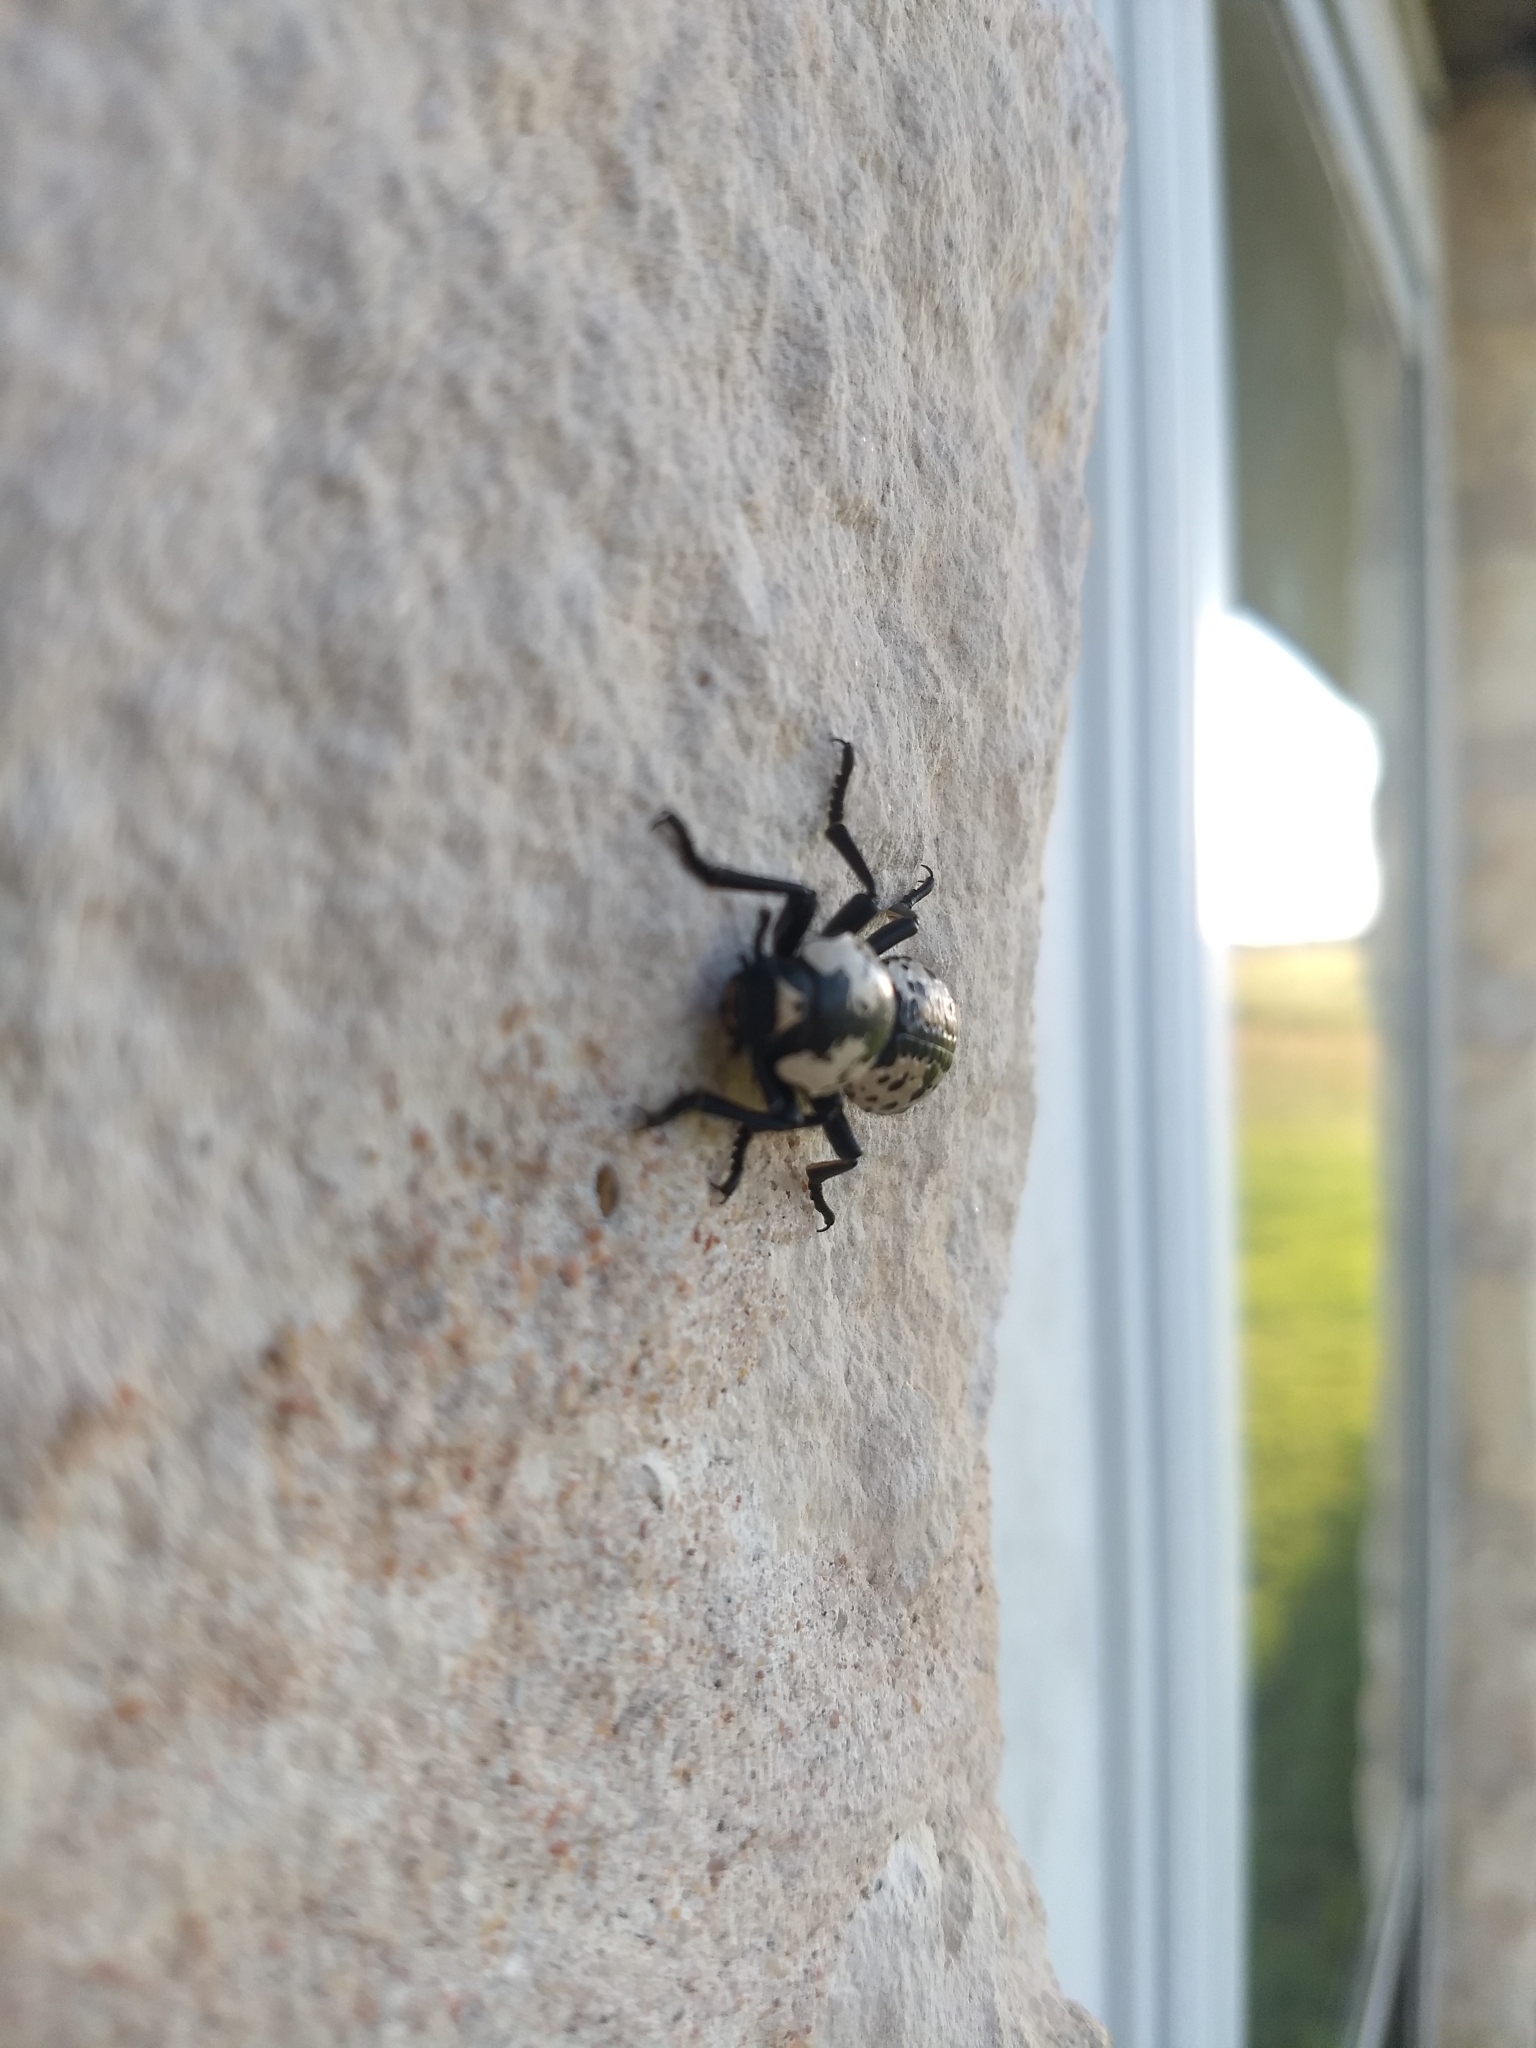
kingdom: Animalia
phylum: Arthropoda
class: Insecta
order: Coleoptera
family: Zopheridae
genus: Zopherus
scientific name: Zopherus nodulosus
